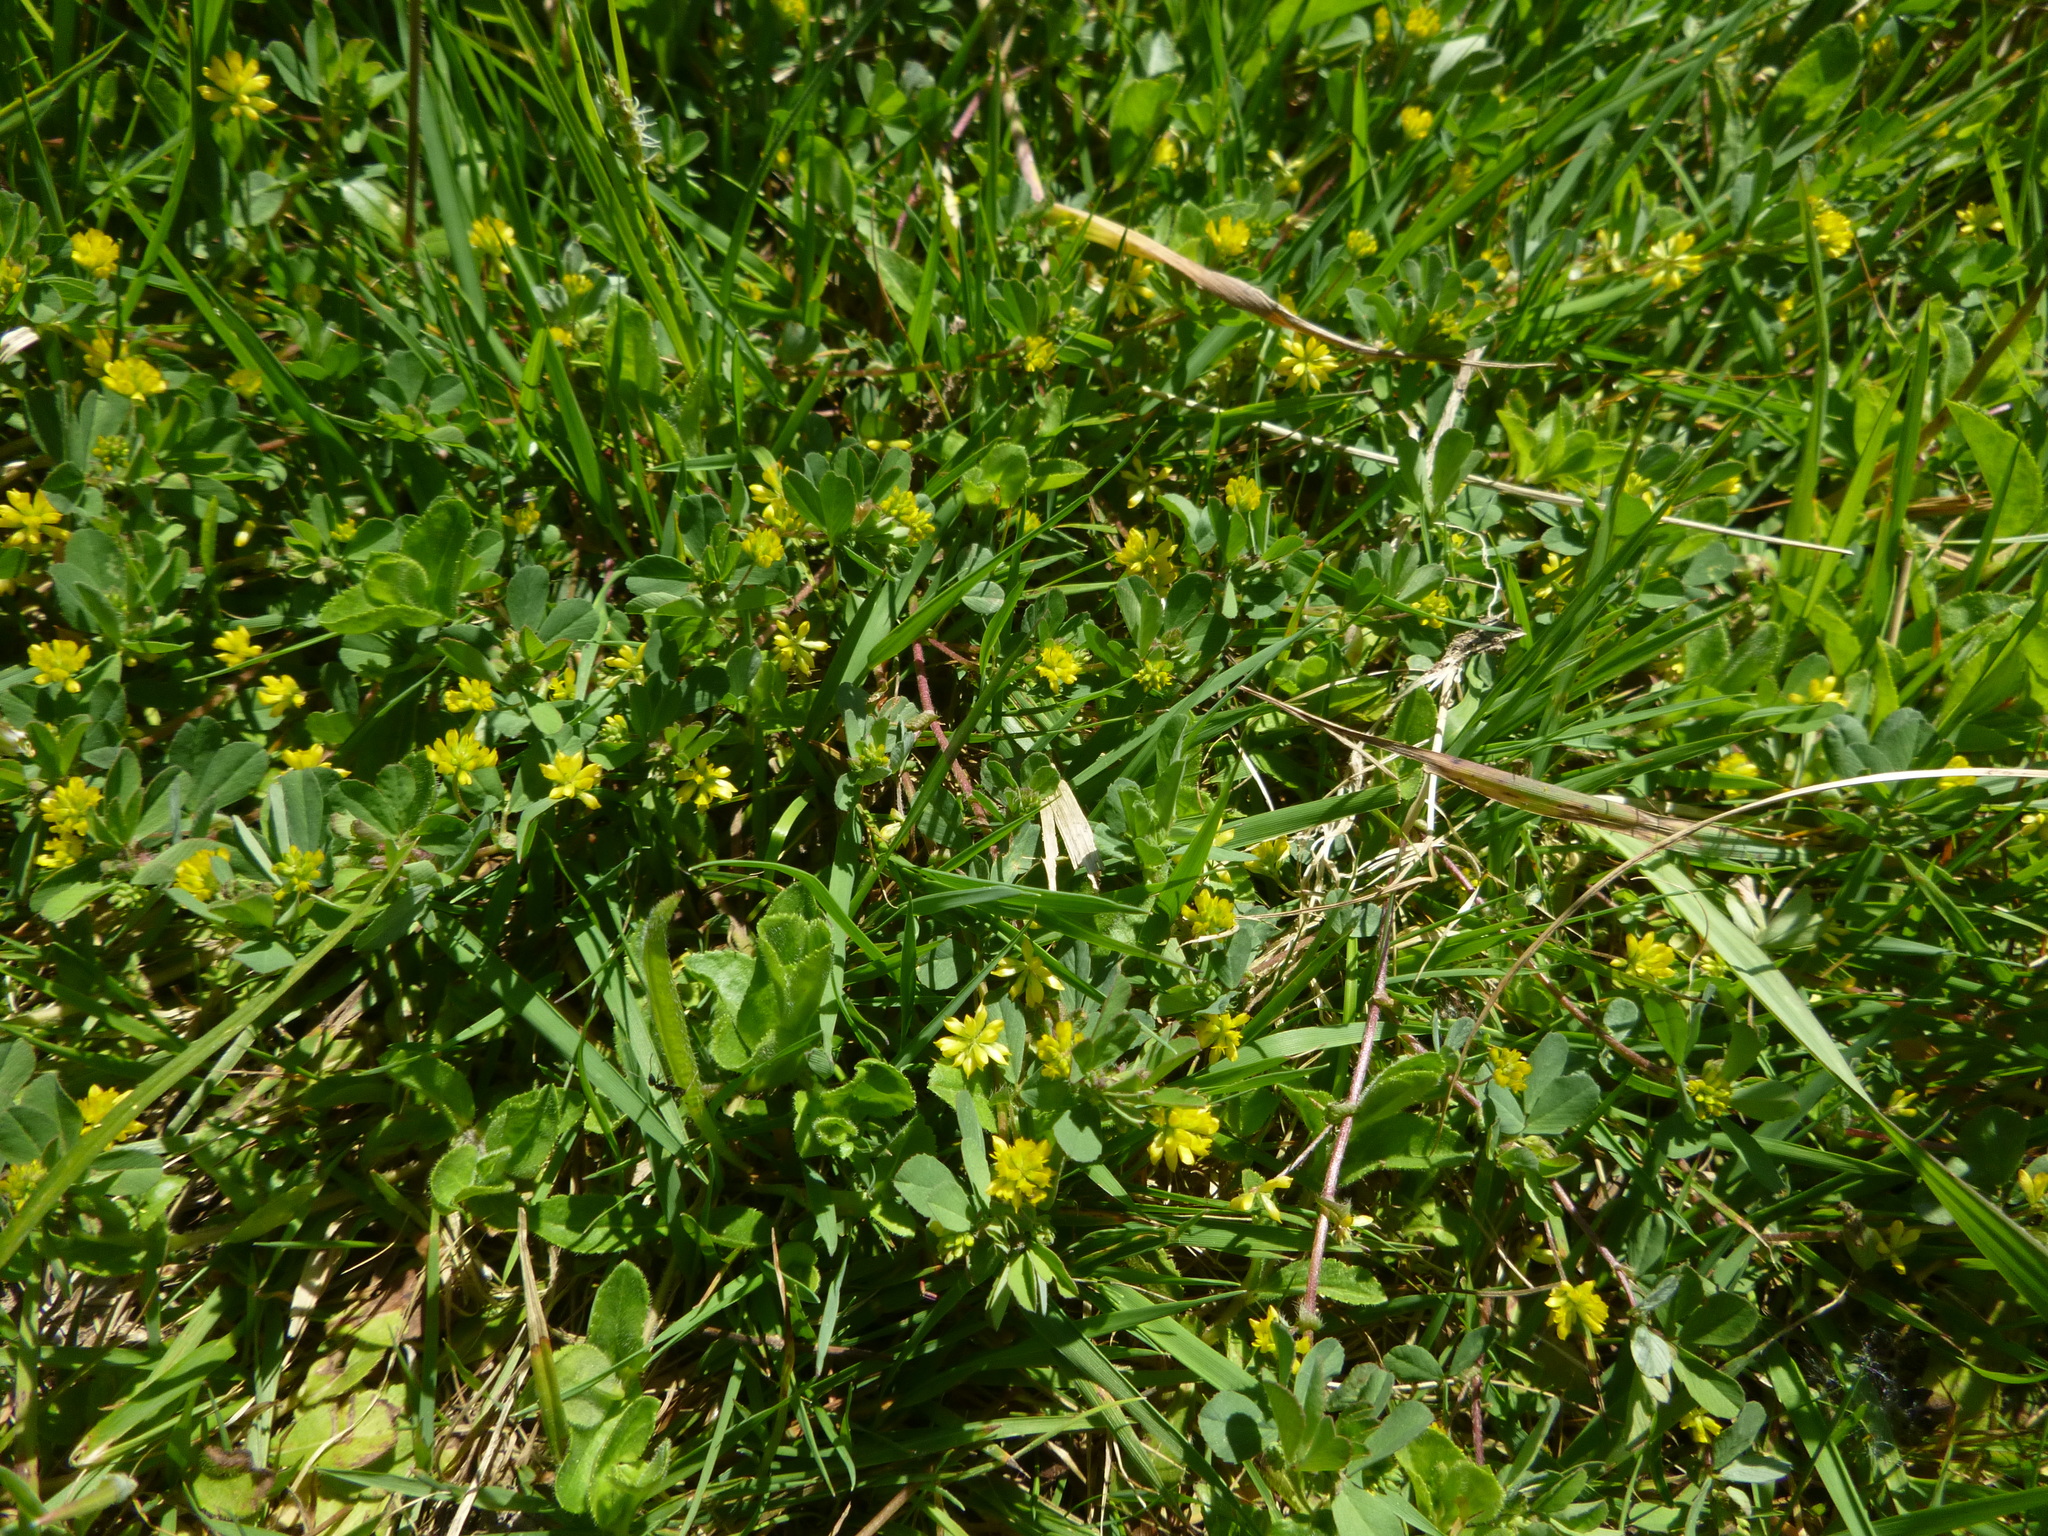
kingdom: Plantae
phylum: Tracheophyta
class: Magnoliopsida
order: Fabales
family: Fabaceae
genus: Trifolium
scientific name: Trifolium dubium
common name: Suckling clover
